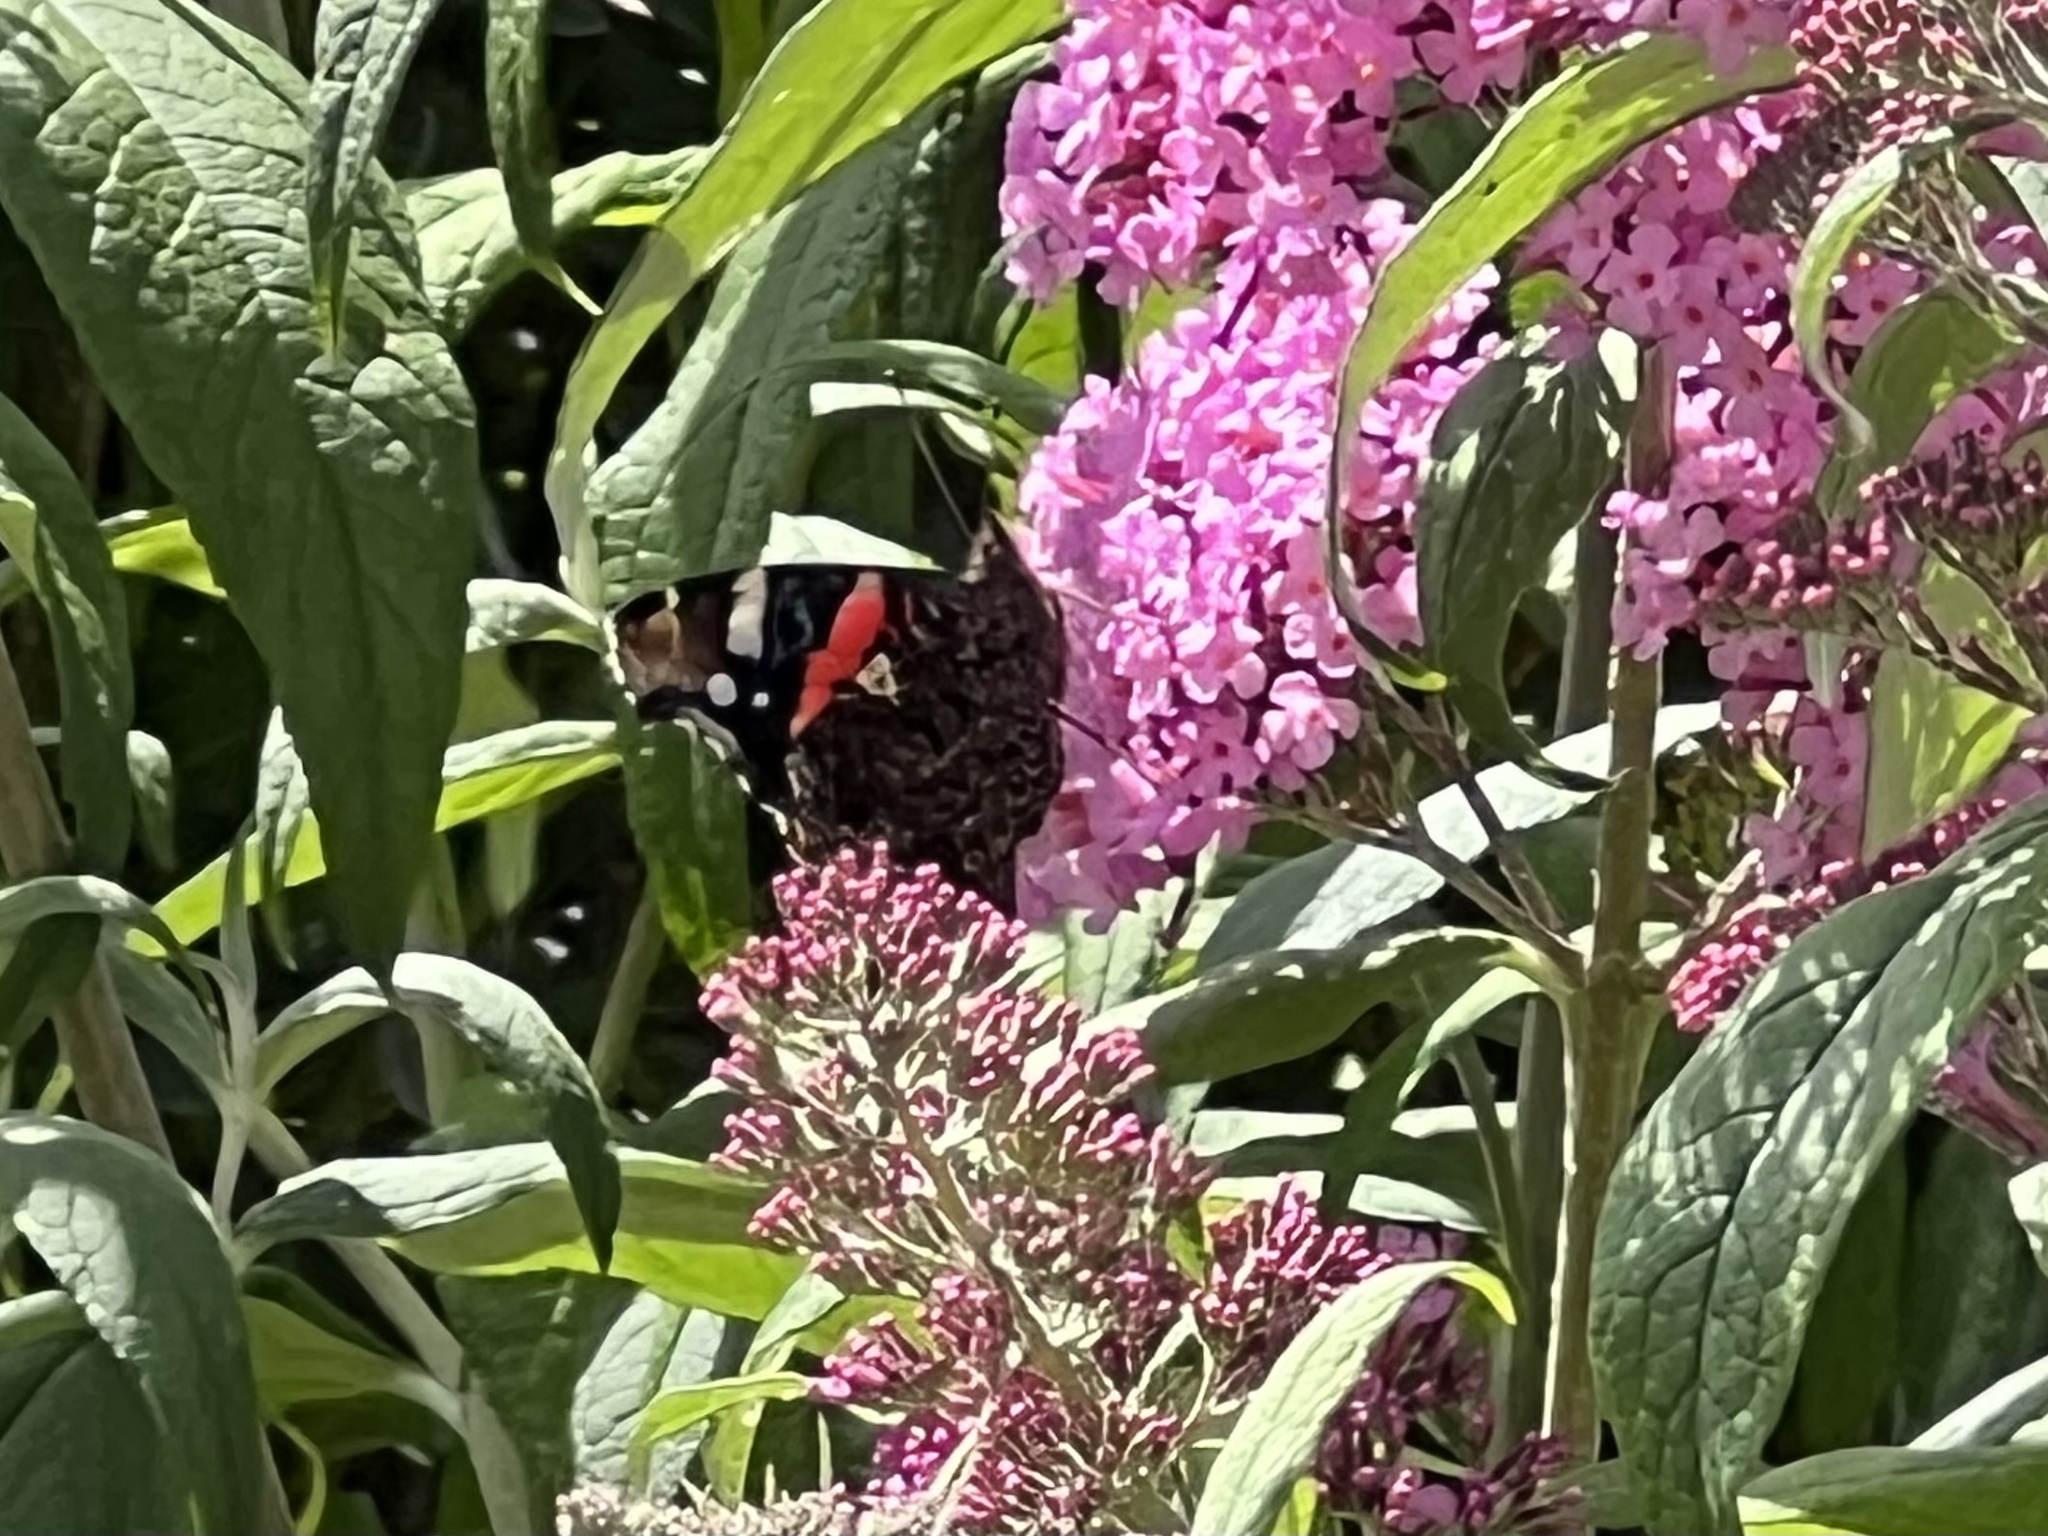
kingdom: Animalia
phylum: Arthropoda
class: Insecta
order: Lepidoptera
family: Nymphalidae
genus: Vanessa
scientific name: Vanessa atalanta
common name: Red admiral
